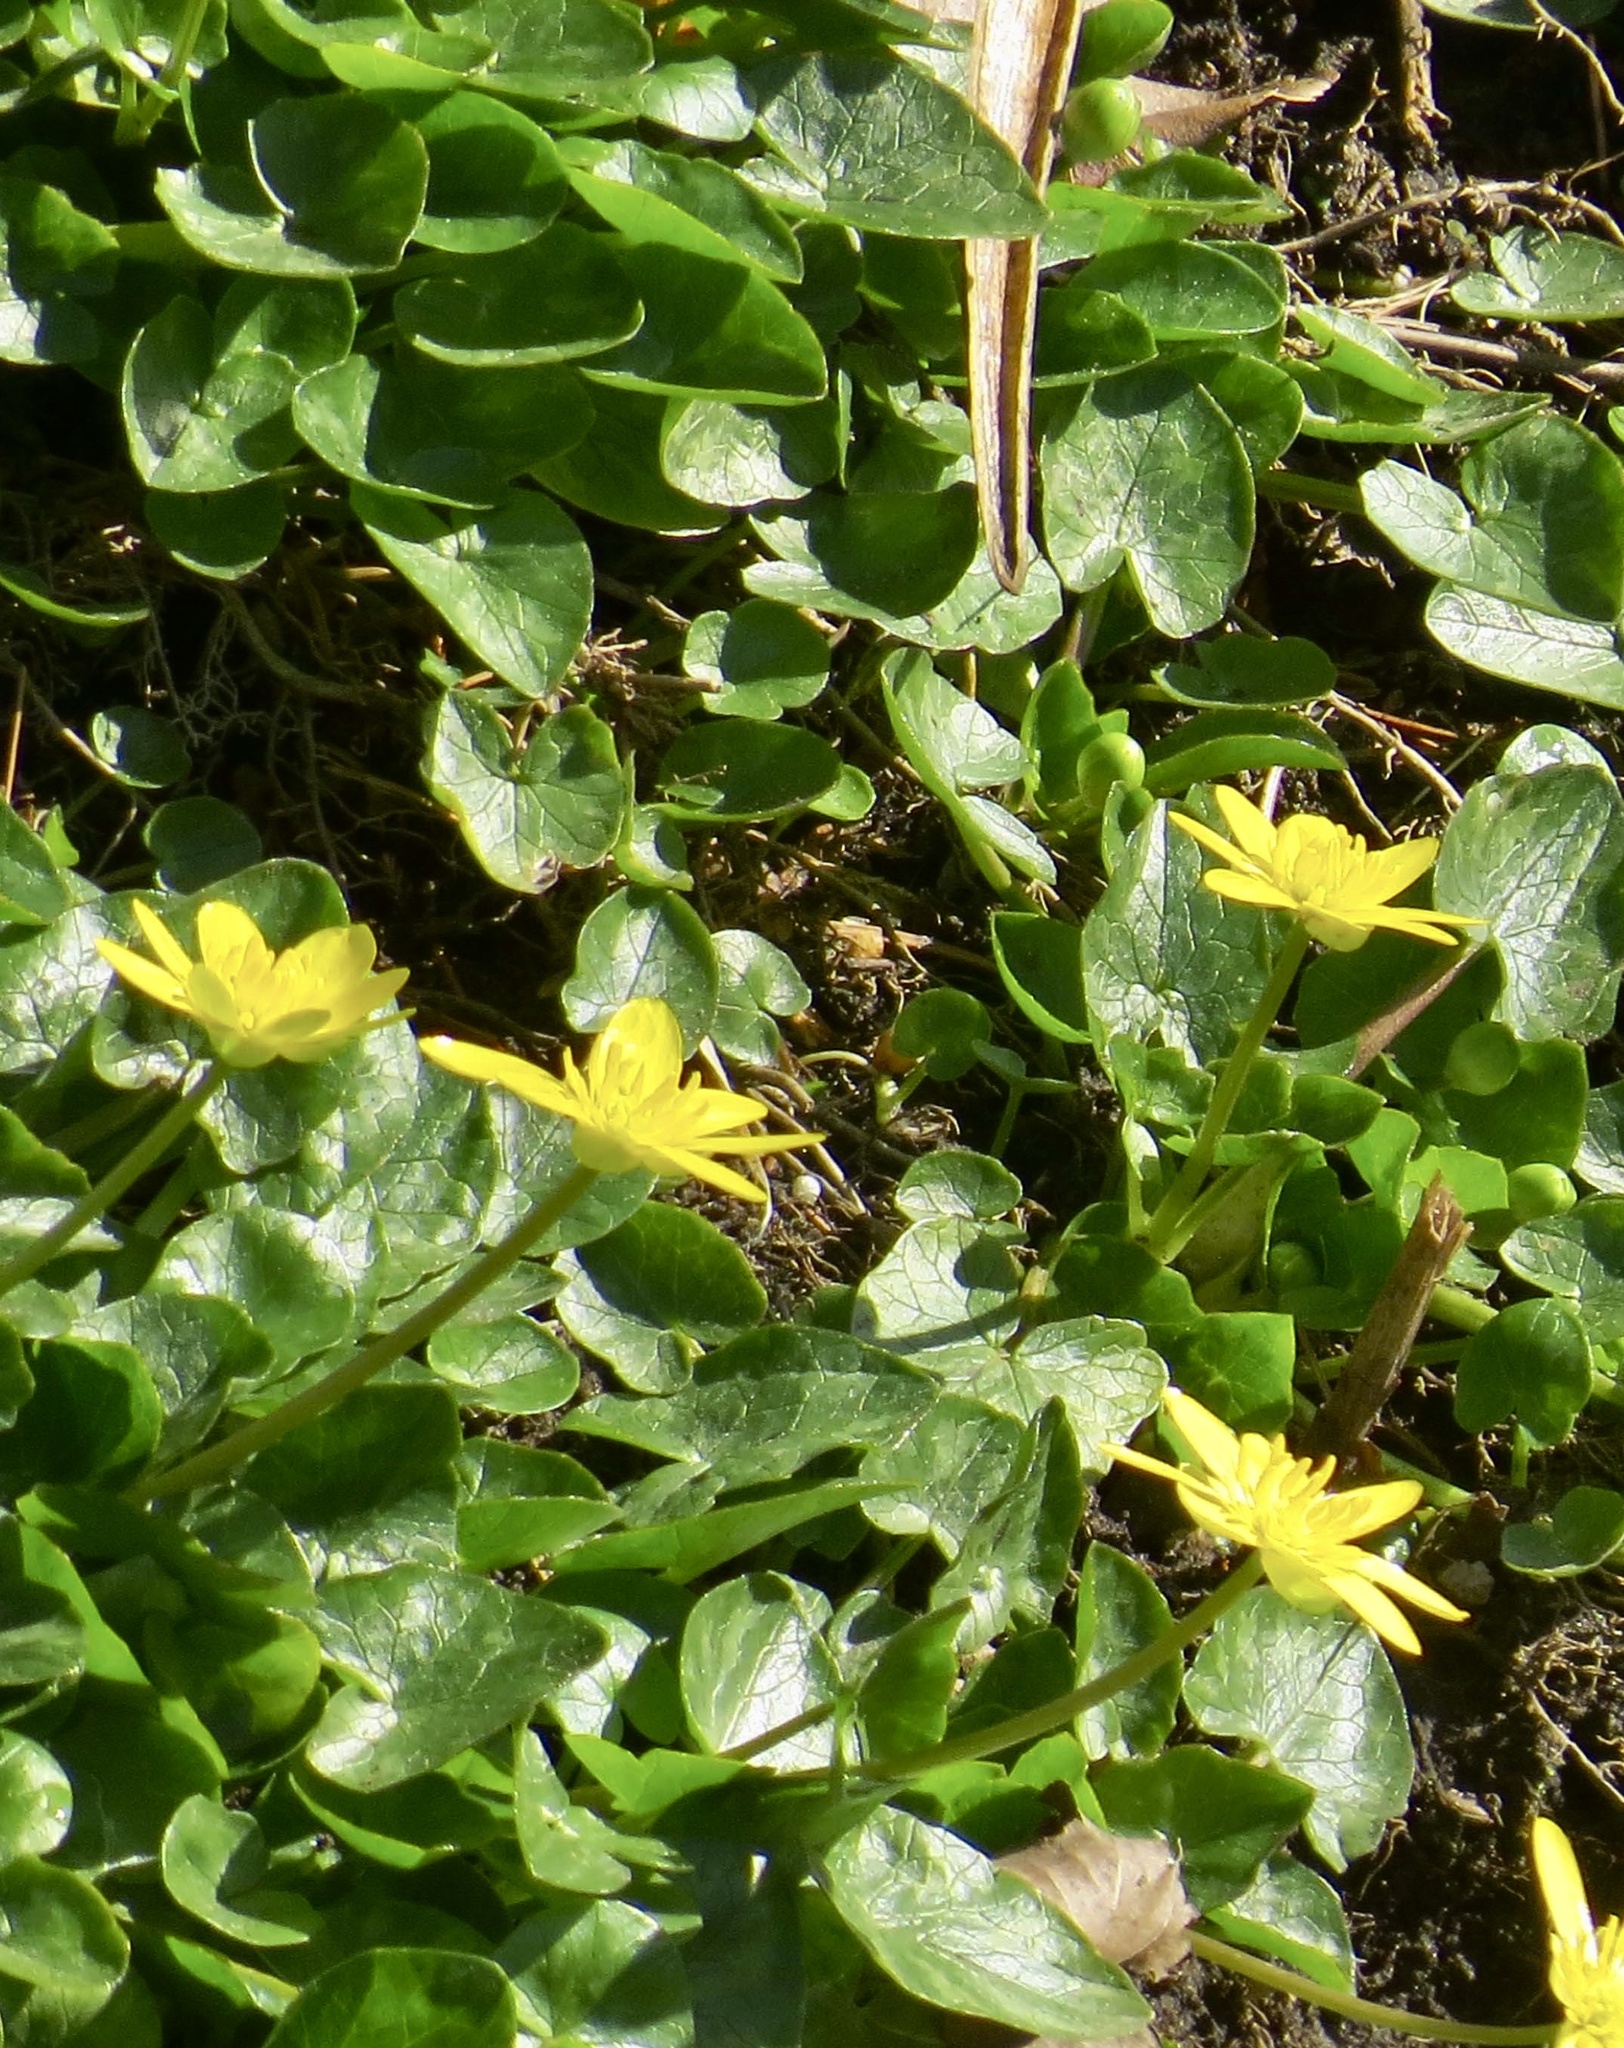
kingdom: Plantae
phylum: Tracheophyta
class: Magnoliopsida
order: Ranunculales
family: Ranunculaceae
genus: Ficaria
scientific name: Ficaria verna
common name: Lesser celandine
